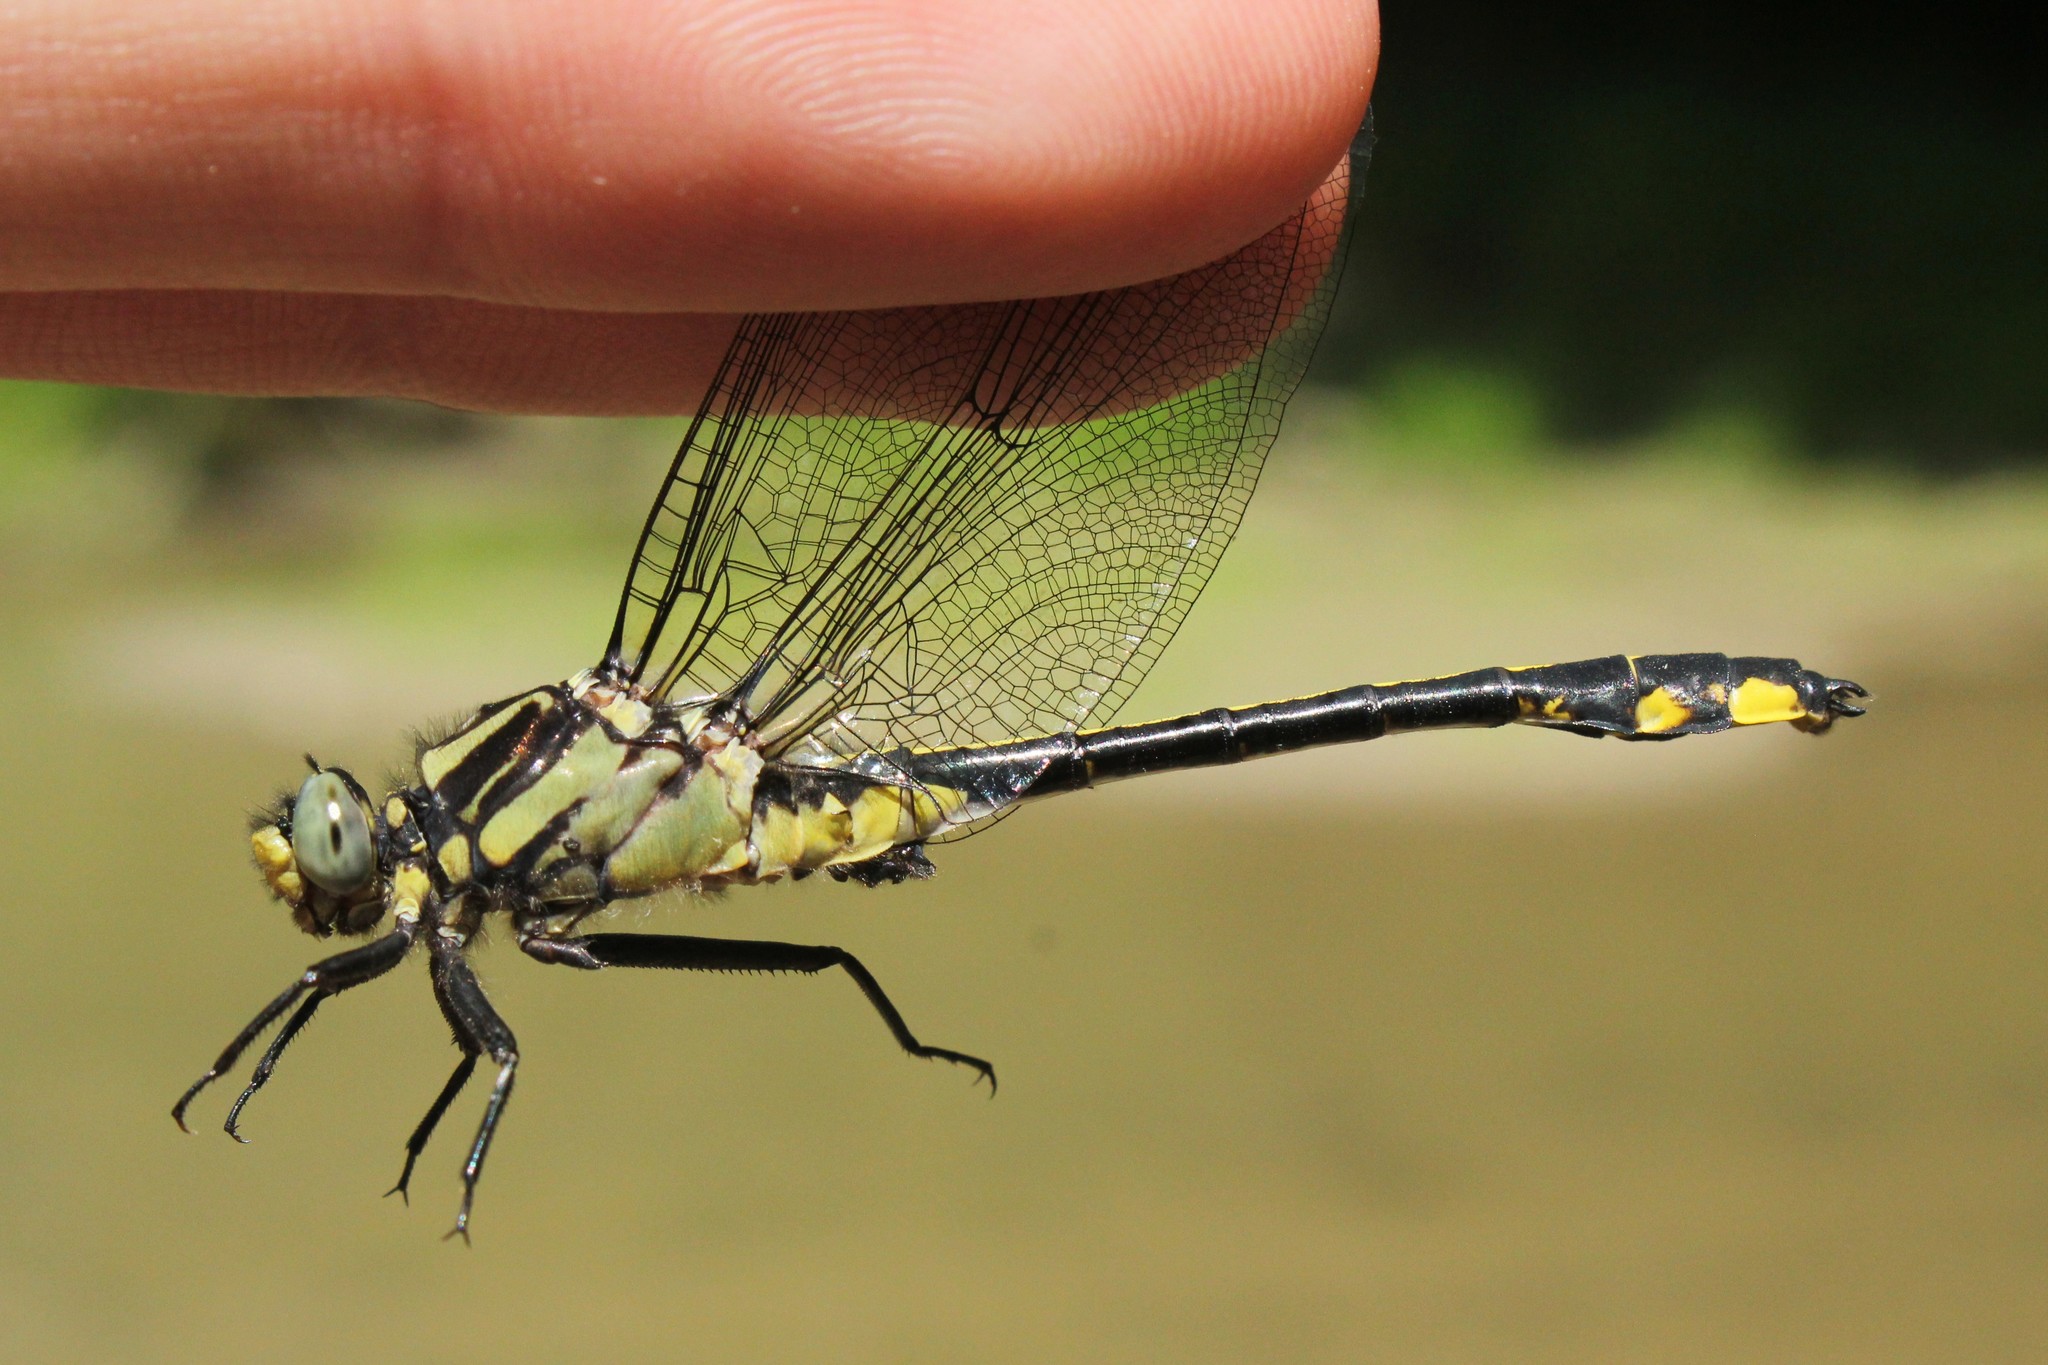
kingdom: Animalia
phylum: Arthropoda
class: Insecta
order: Odonata
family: Gomphidae
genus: Gomphurus
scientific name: Gomphurus fraternus
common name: Midland clubtail
